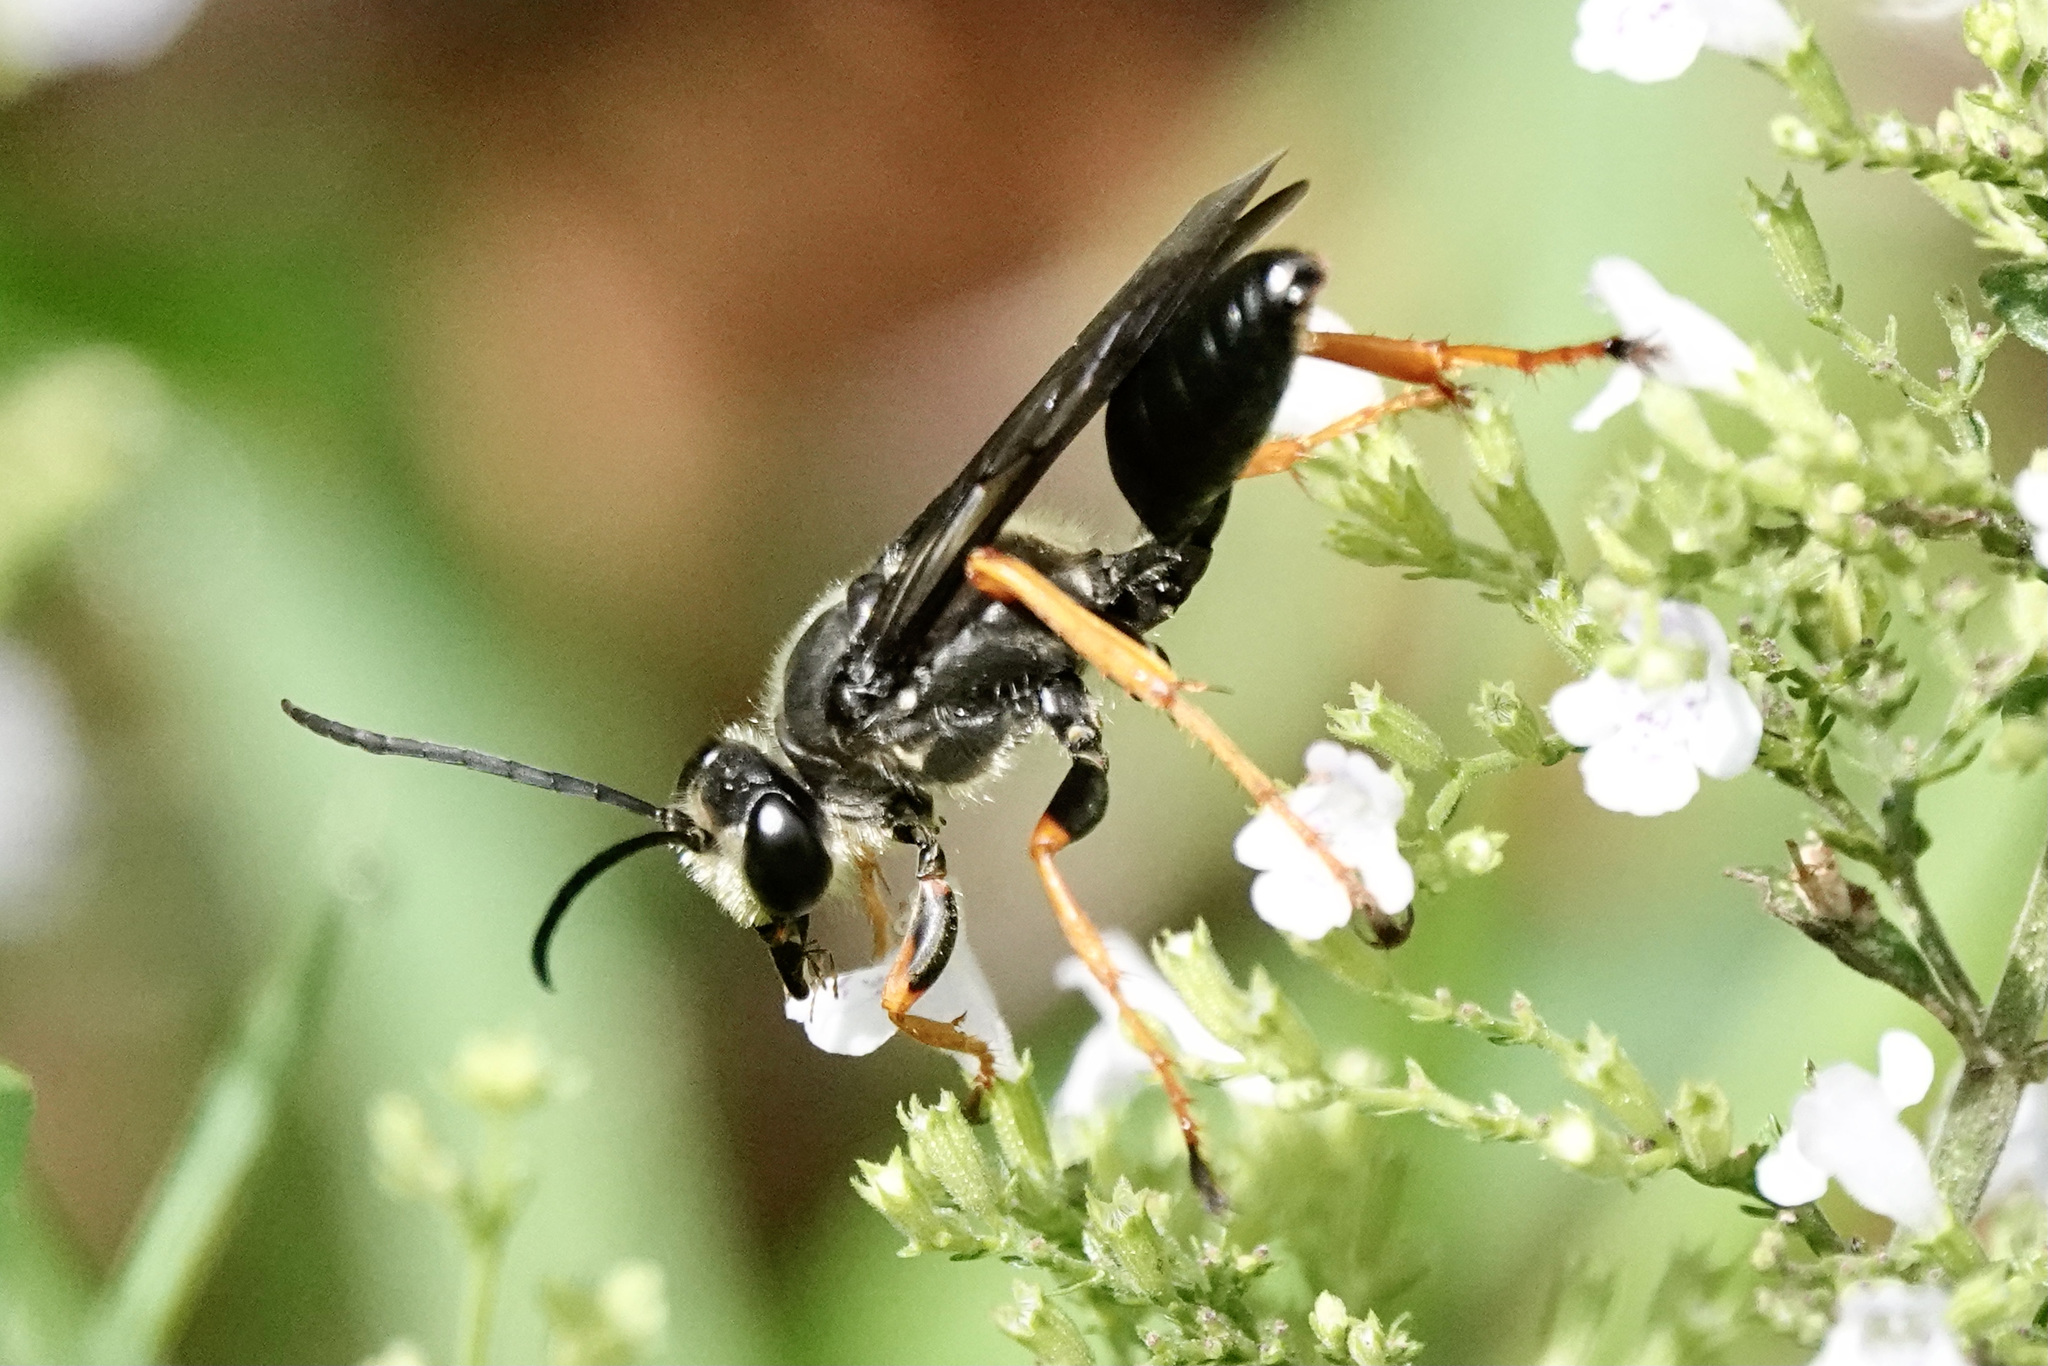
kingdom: Animalia
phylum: Arthropoda
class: Insecta
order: Hymenoptera
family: Sphecidae
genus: Sphex
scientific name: Sphex nudus
